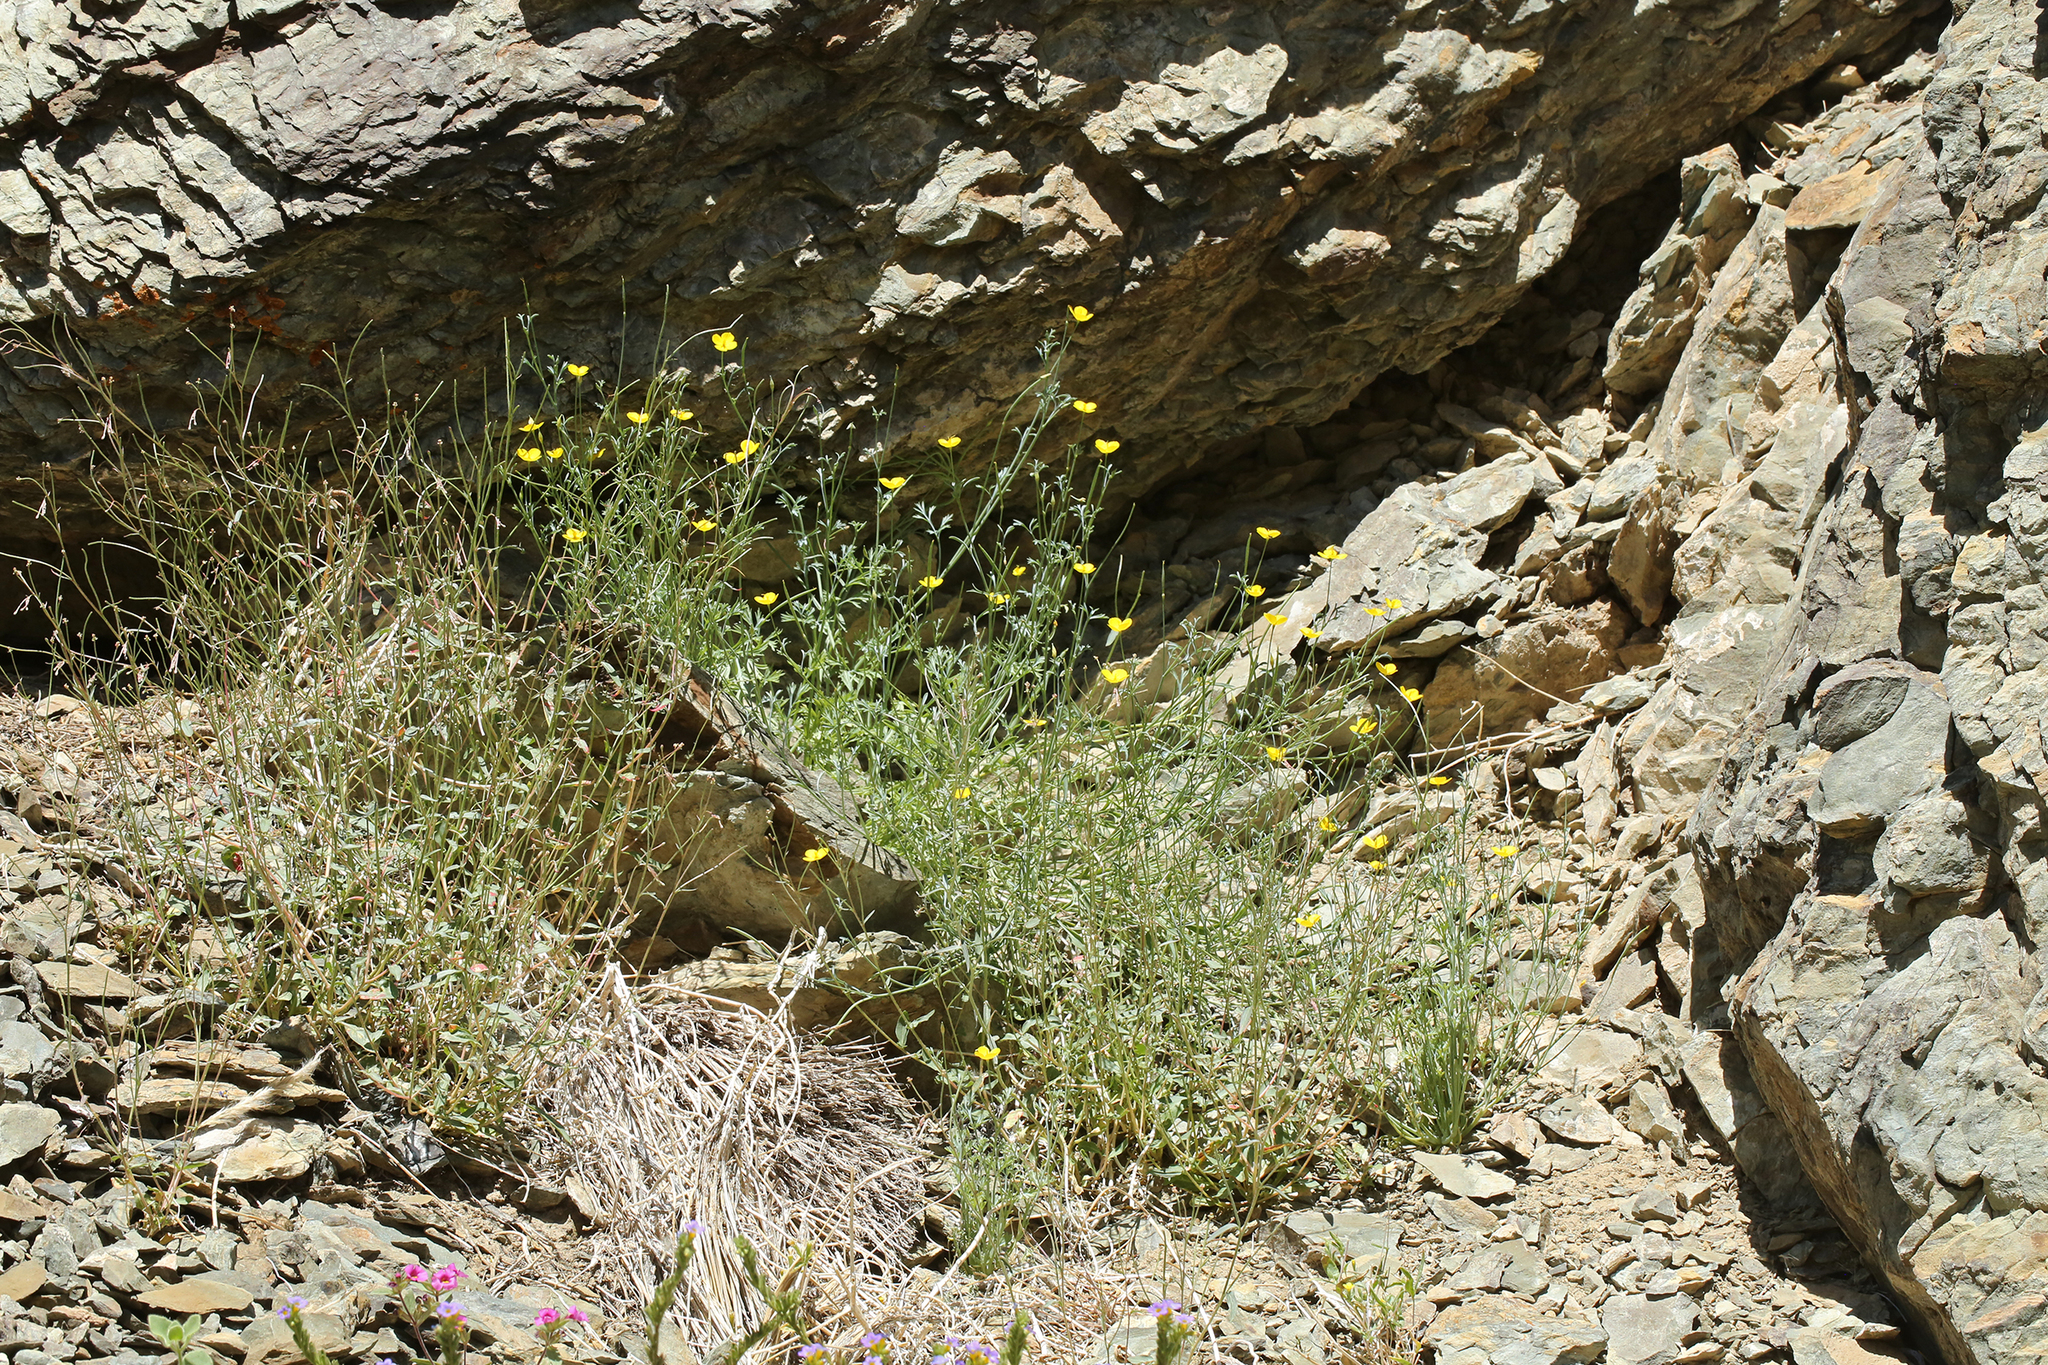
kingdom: Plantae
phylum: Tracheophyta
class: Magnoliopsida
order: Ranunculales
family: Papaveraceae
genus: Eschscholzia
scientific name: Eschscholzia minutiflora
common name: Small-flower california-poppy
